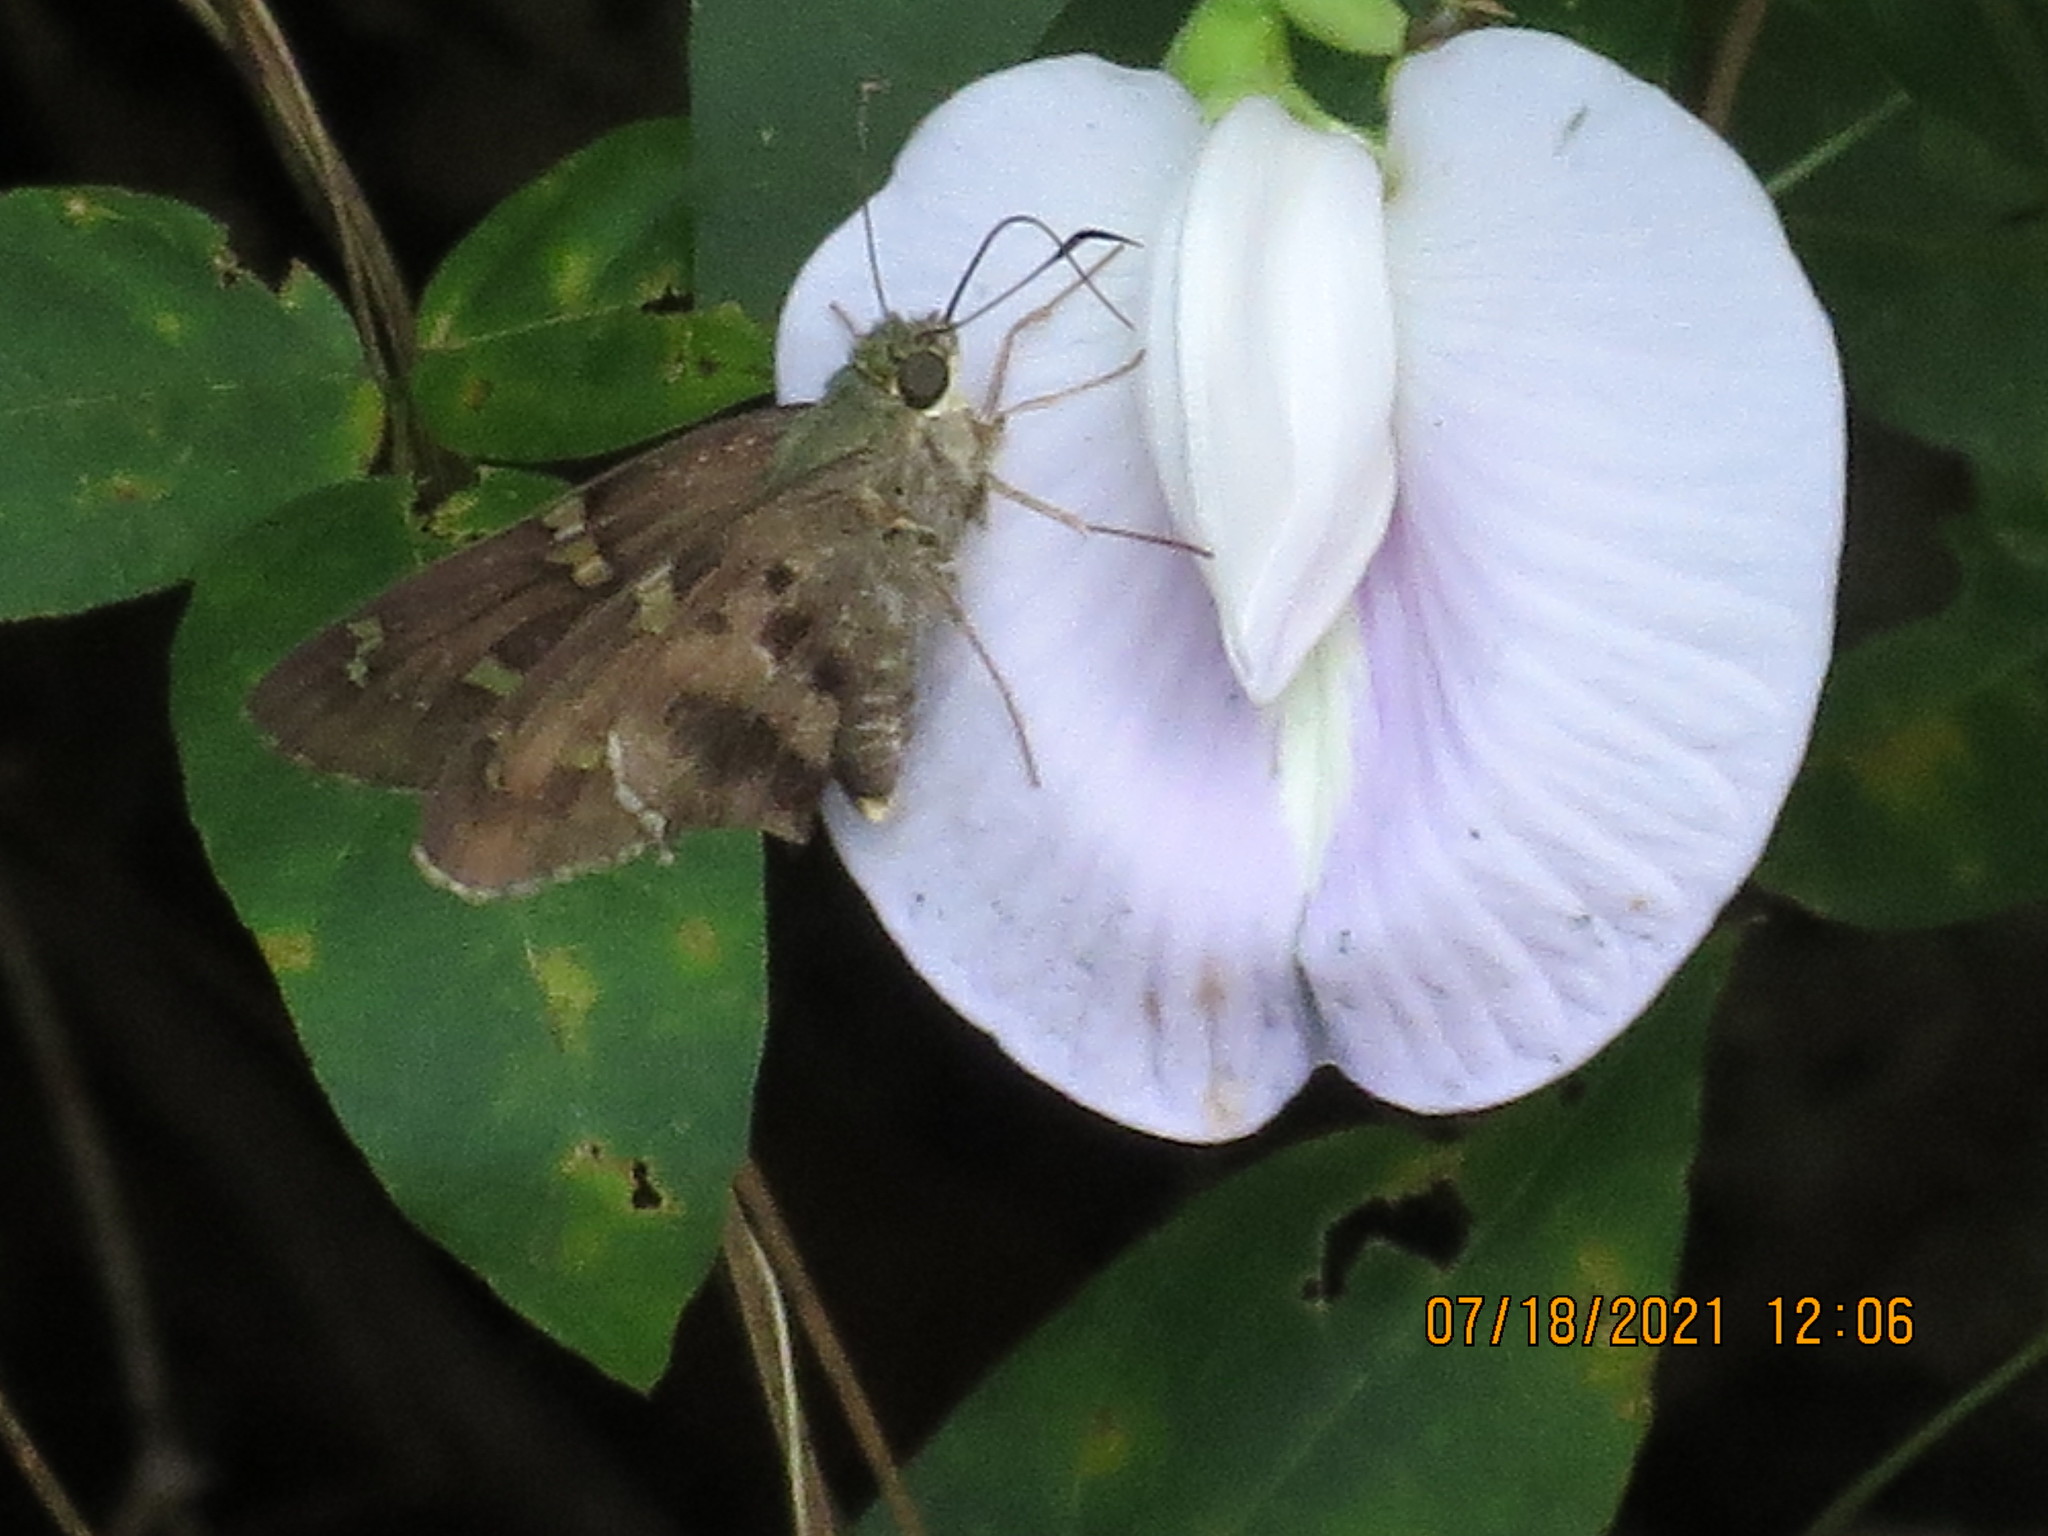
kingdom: Animalia
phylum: Arthropoda
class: Insecta
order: Lepidoptera
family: Hesperiidae
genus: Urbanus
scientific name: Urbanus proteus
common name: Long-tailed skipper
